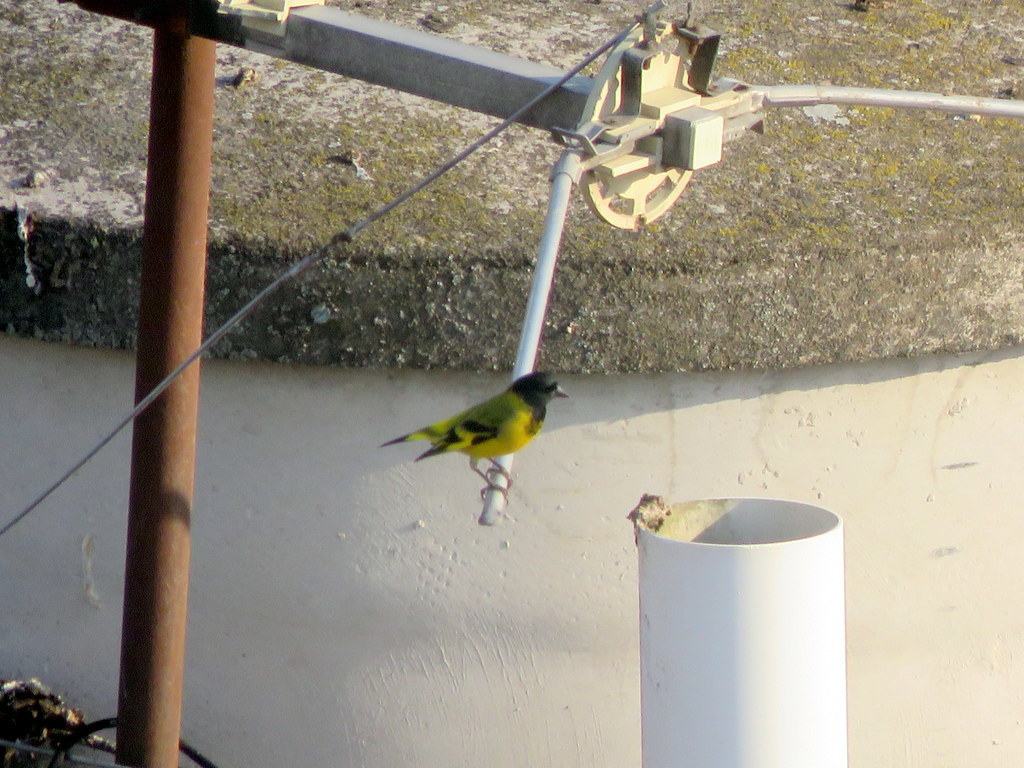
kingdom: Animalia
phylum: Chordata
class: Aves
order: Passeriformes
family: Fringillidae
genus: Spinus
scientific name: Spinus magellanicus
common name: Hooded siskin
